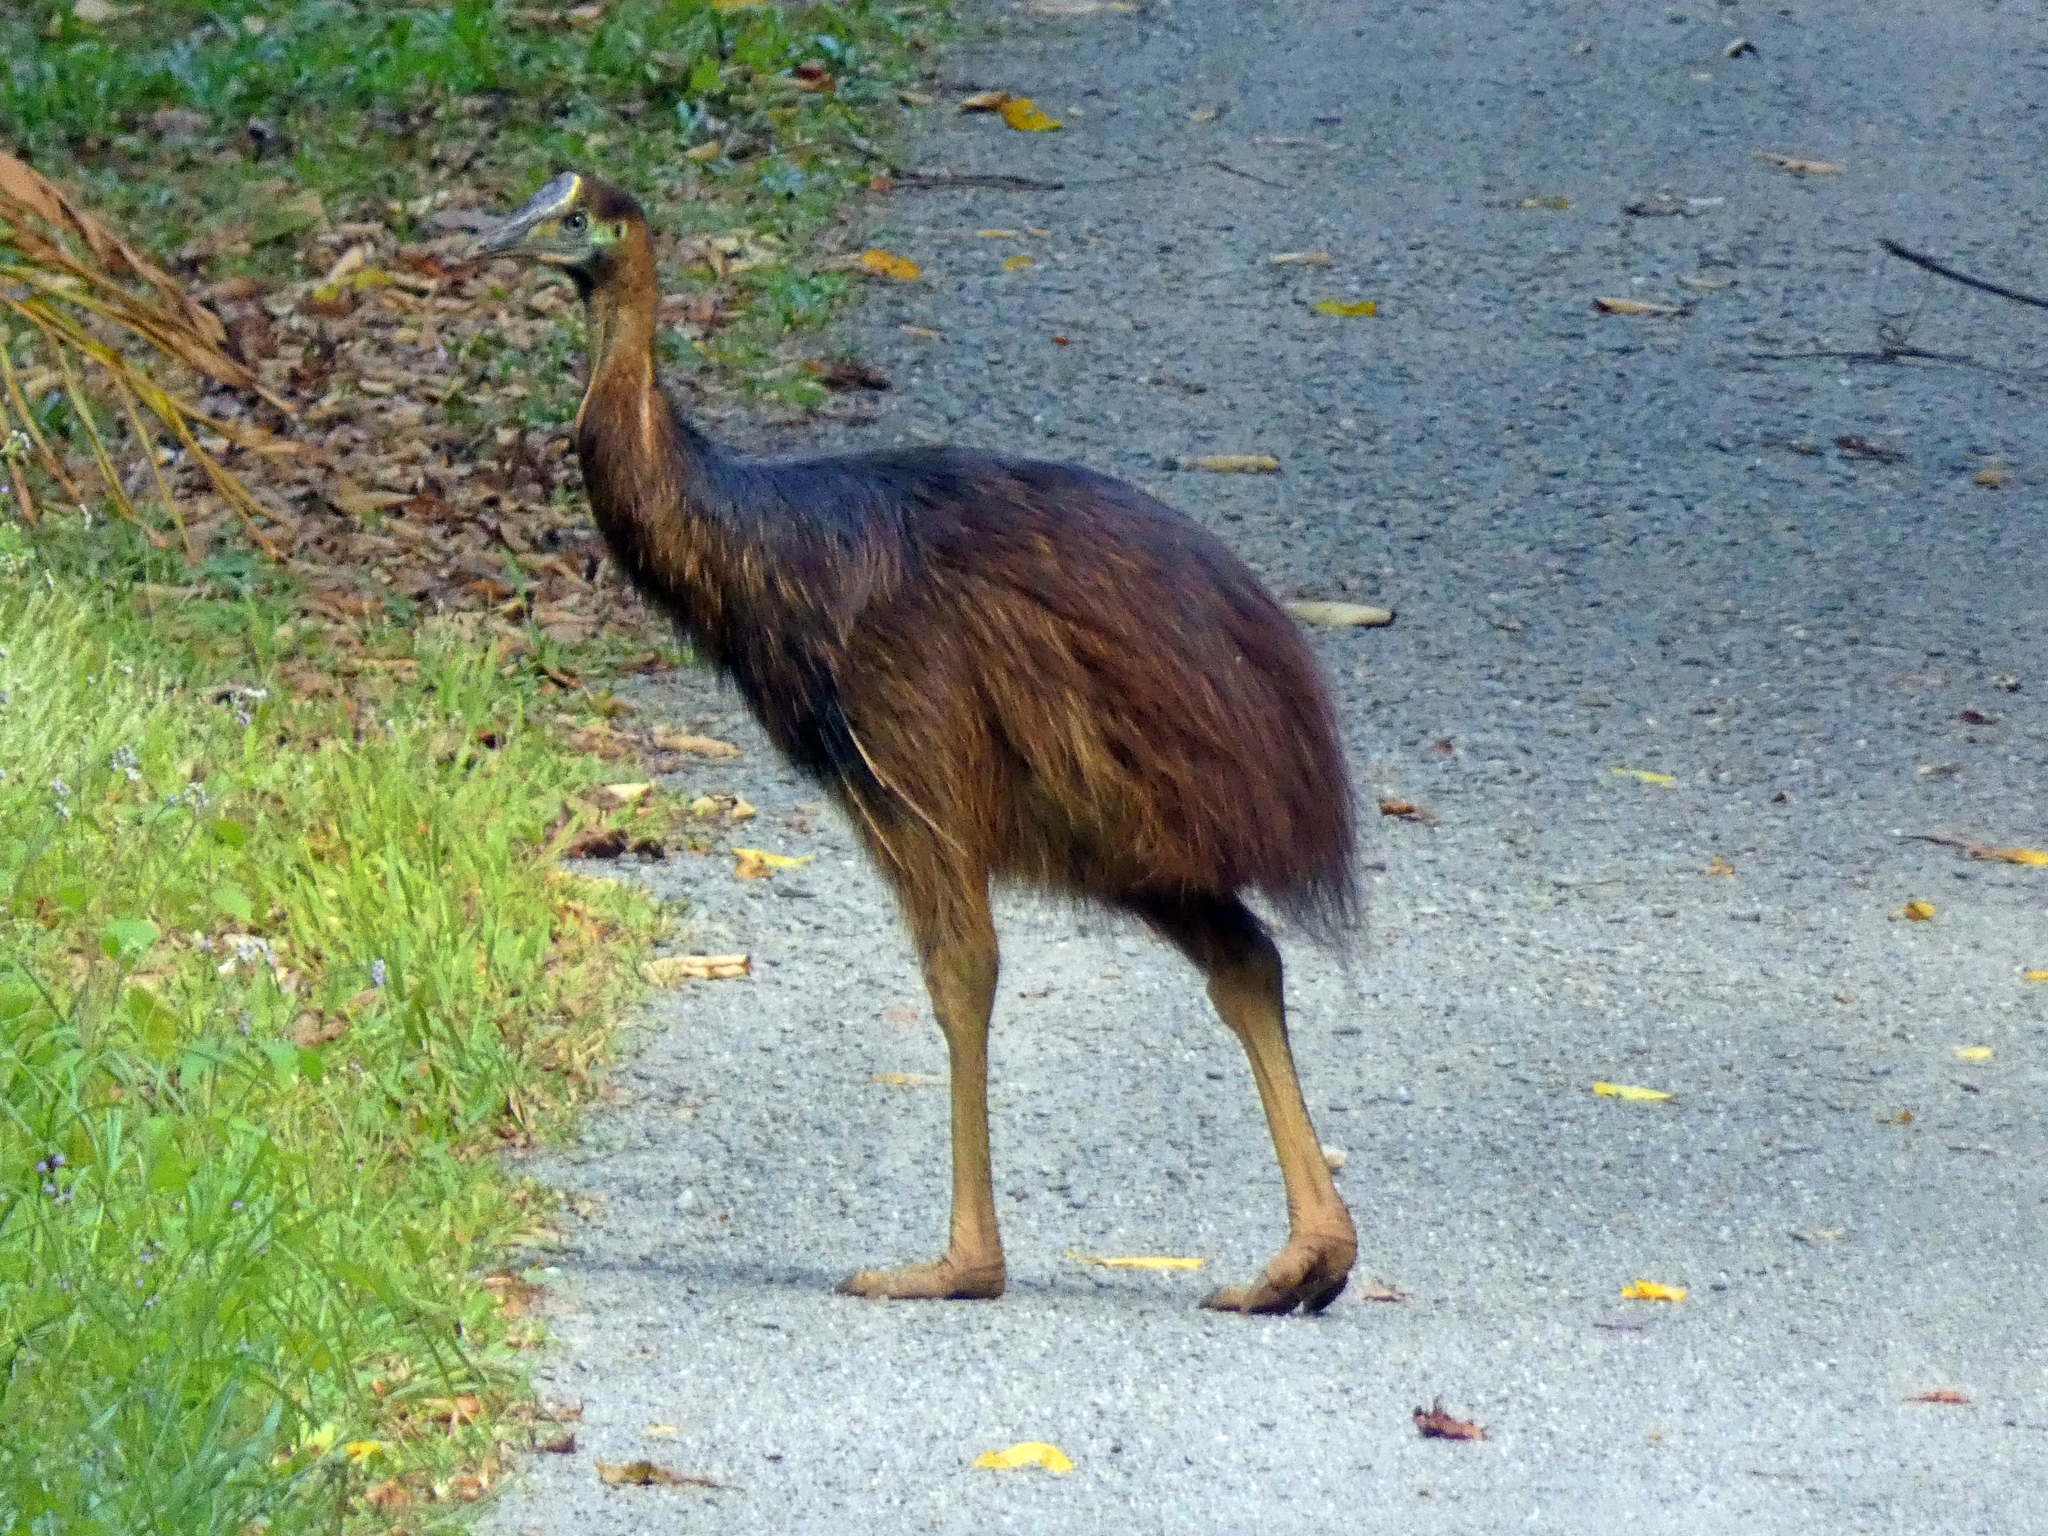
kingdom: Animalia
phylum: Chordata
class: Aves
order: Casuariiformes
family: Casuariidae
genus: Casuarius
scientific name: Casuarius casuarius
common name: Southern cassowary
